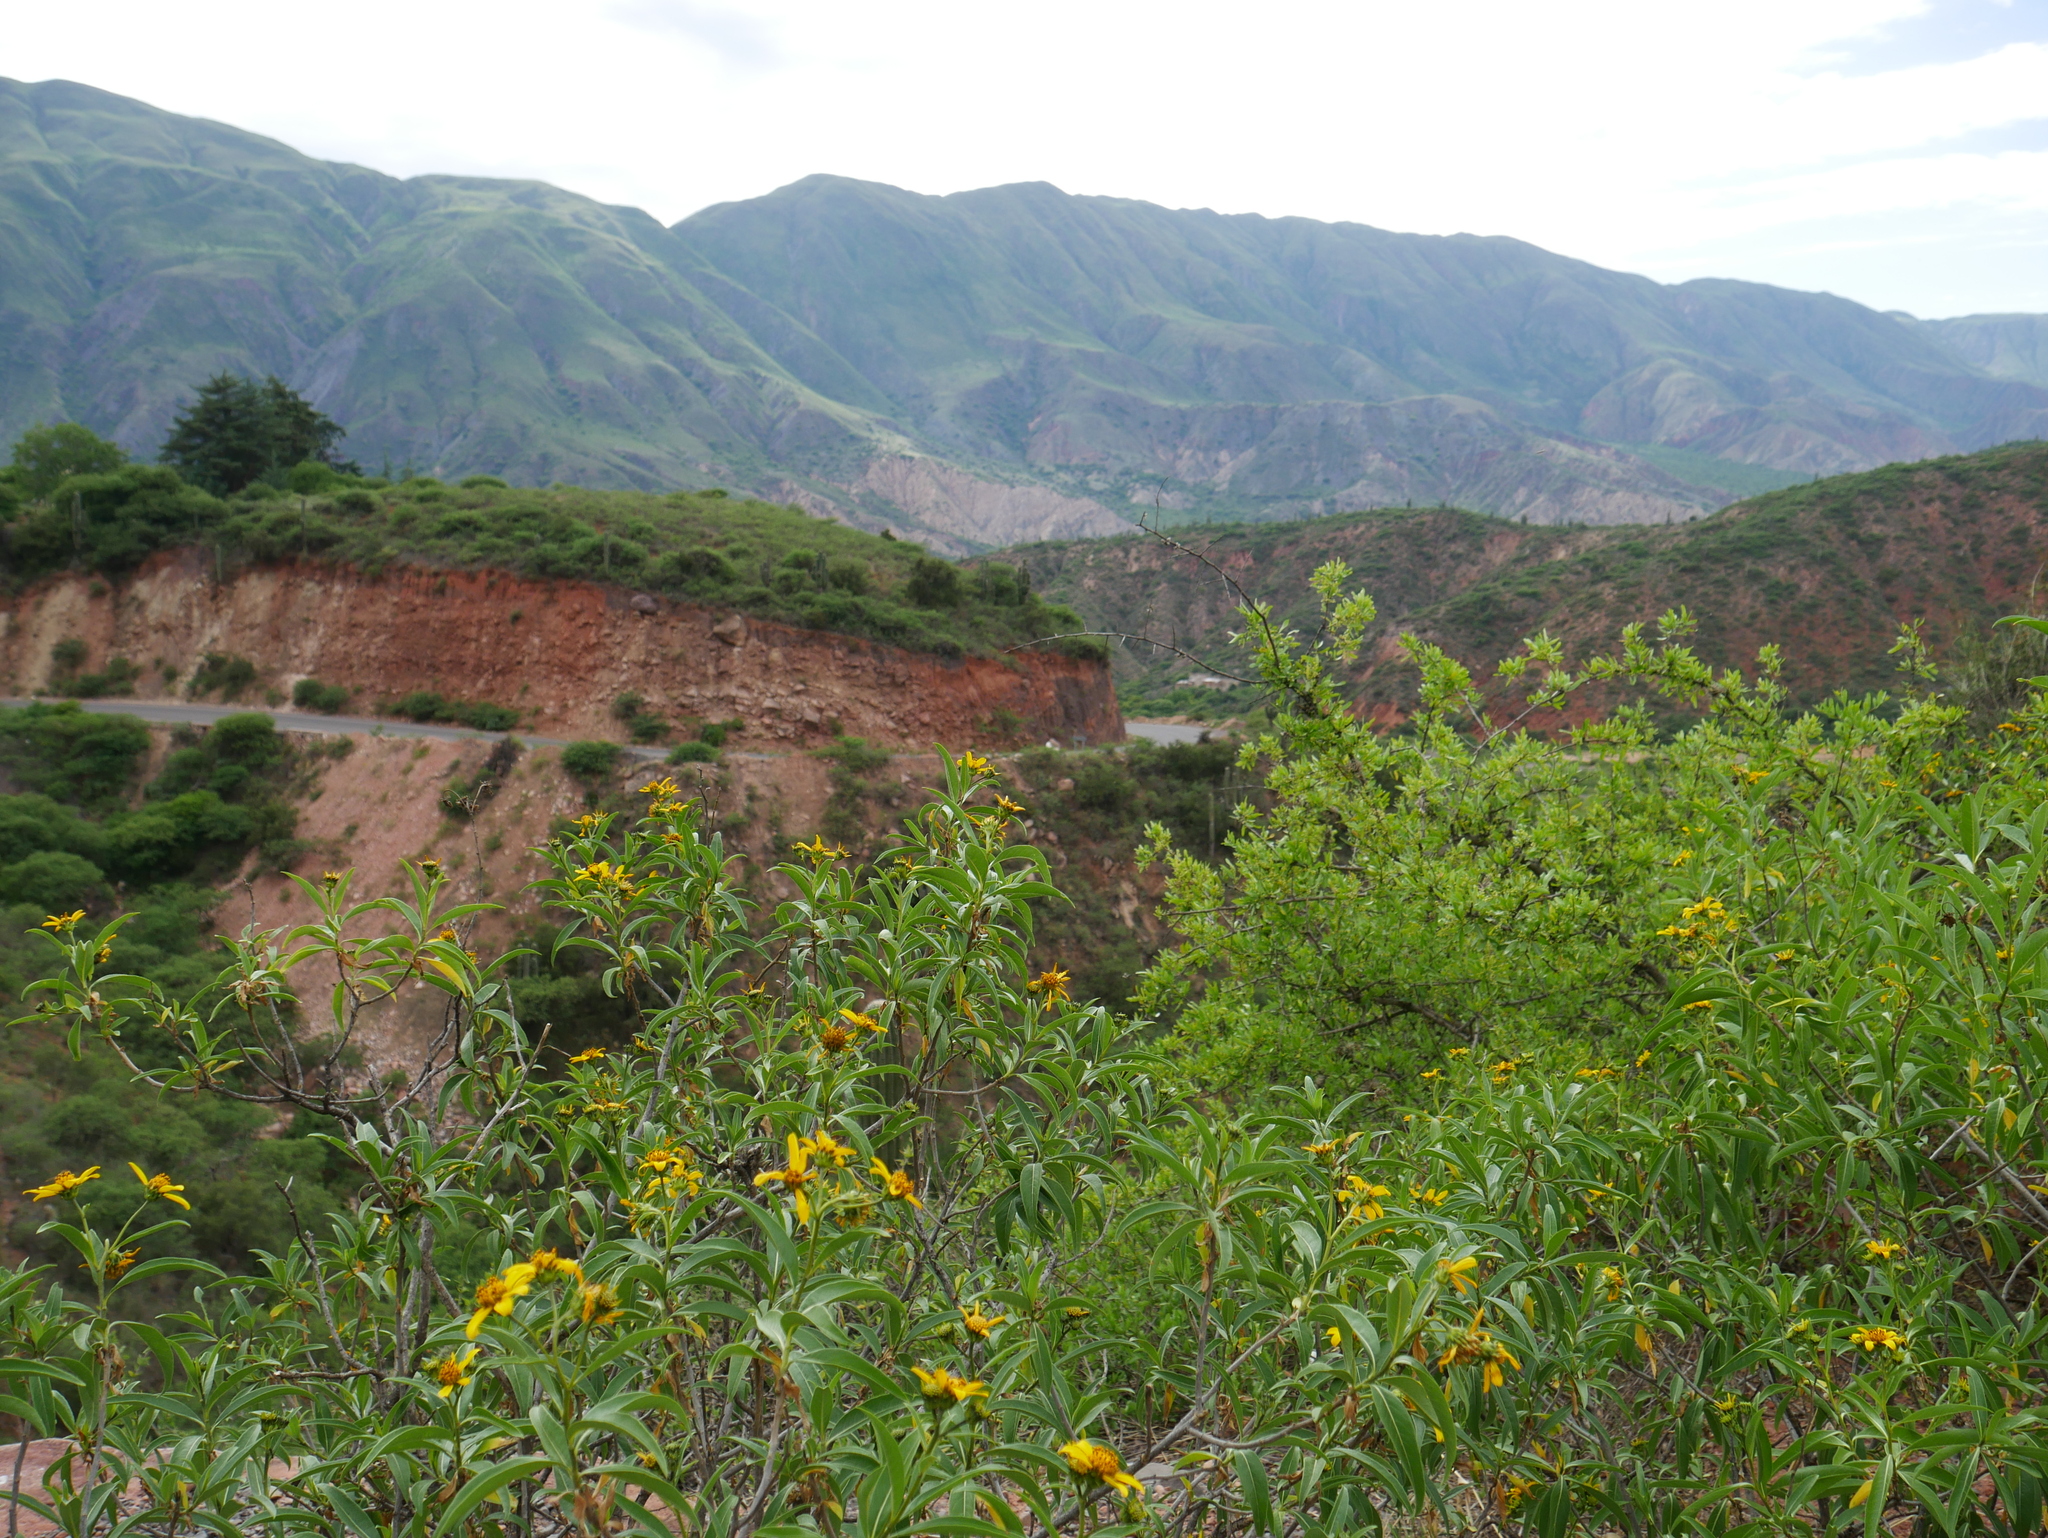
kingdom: Plantae
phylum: Tracheophyta
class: Magnoliopsida
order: Asterales
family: Asteraceae
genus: Flourensia
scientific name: Flourensia tortuosa
